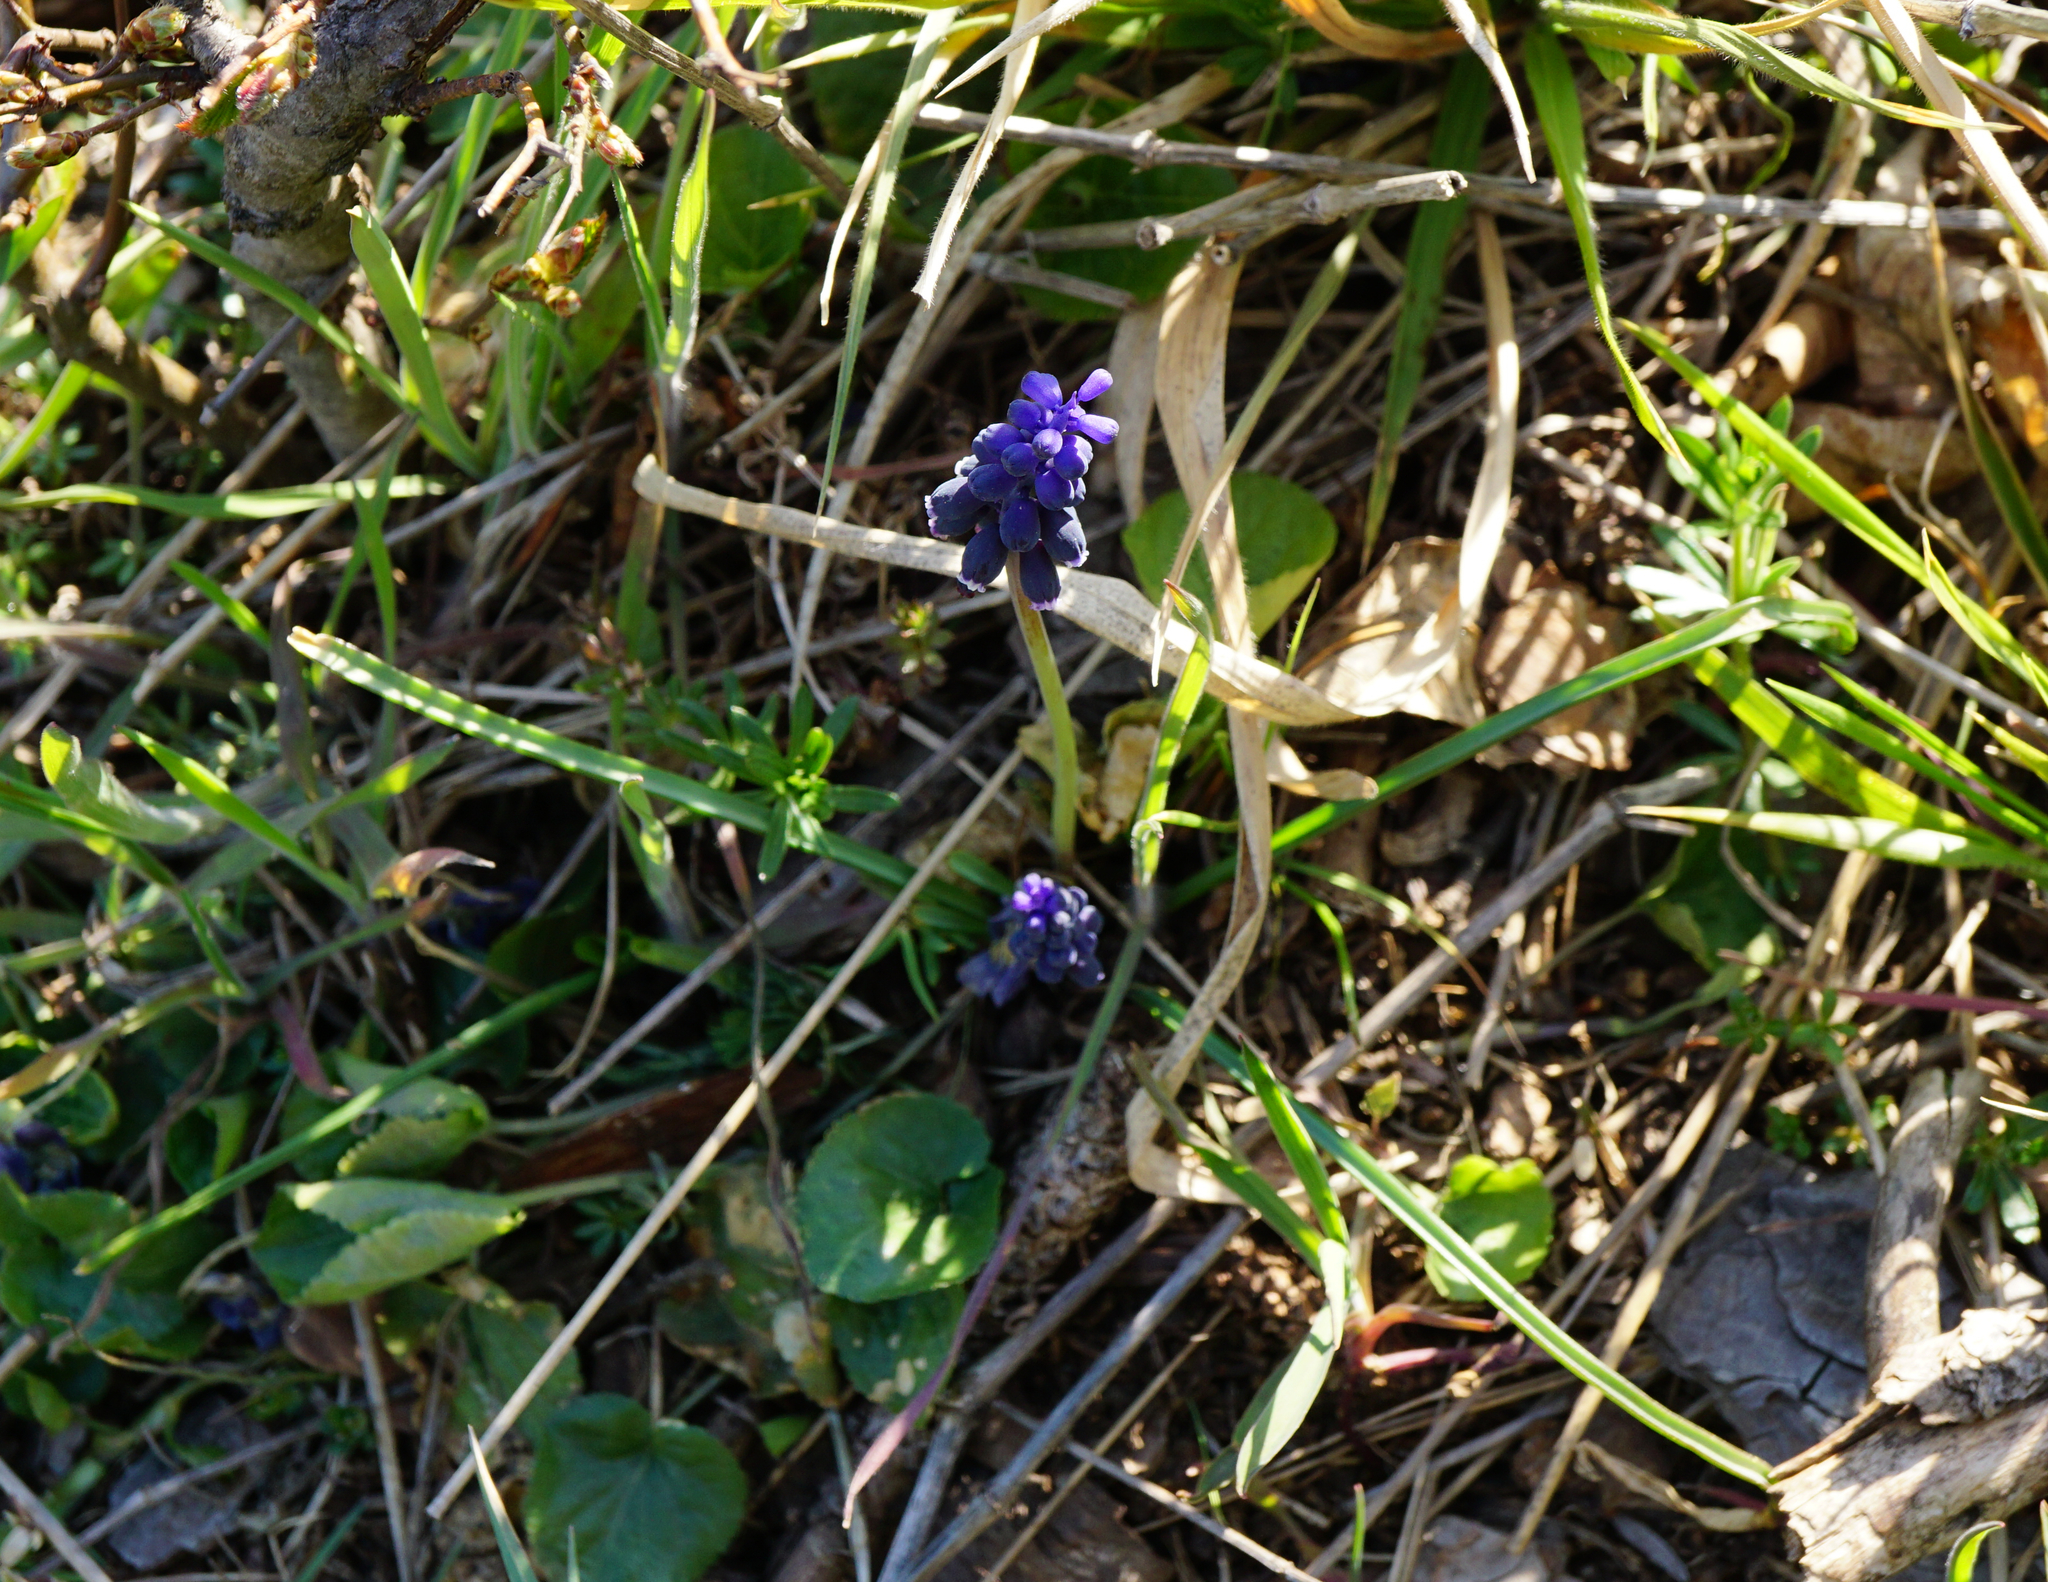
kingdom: Plantae
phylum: Tracheophyta
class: Liliopsida
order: Asparagales
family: Asparagaceae
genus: Muscari
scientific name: Muscari neglectum
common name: Grape-hyacinth
